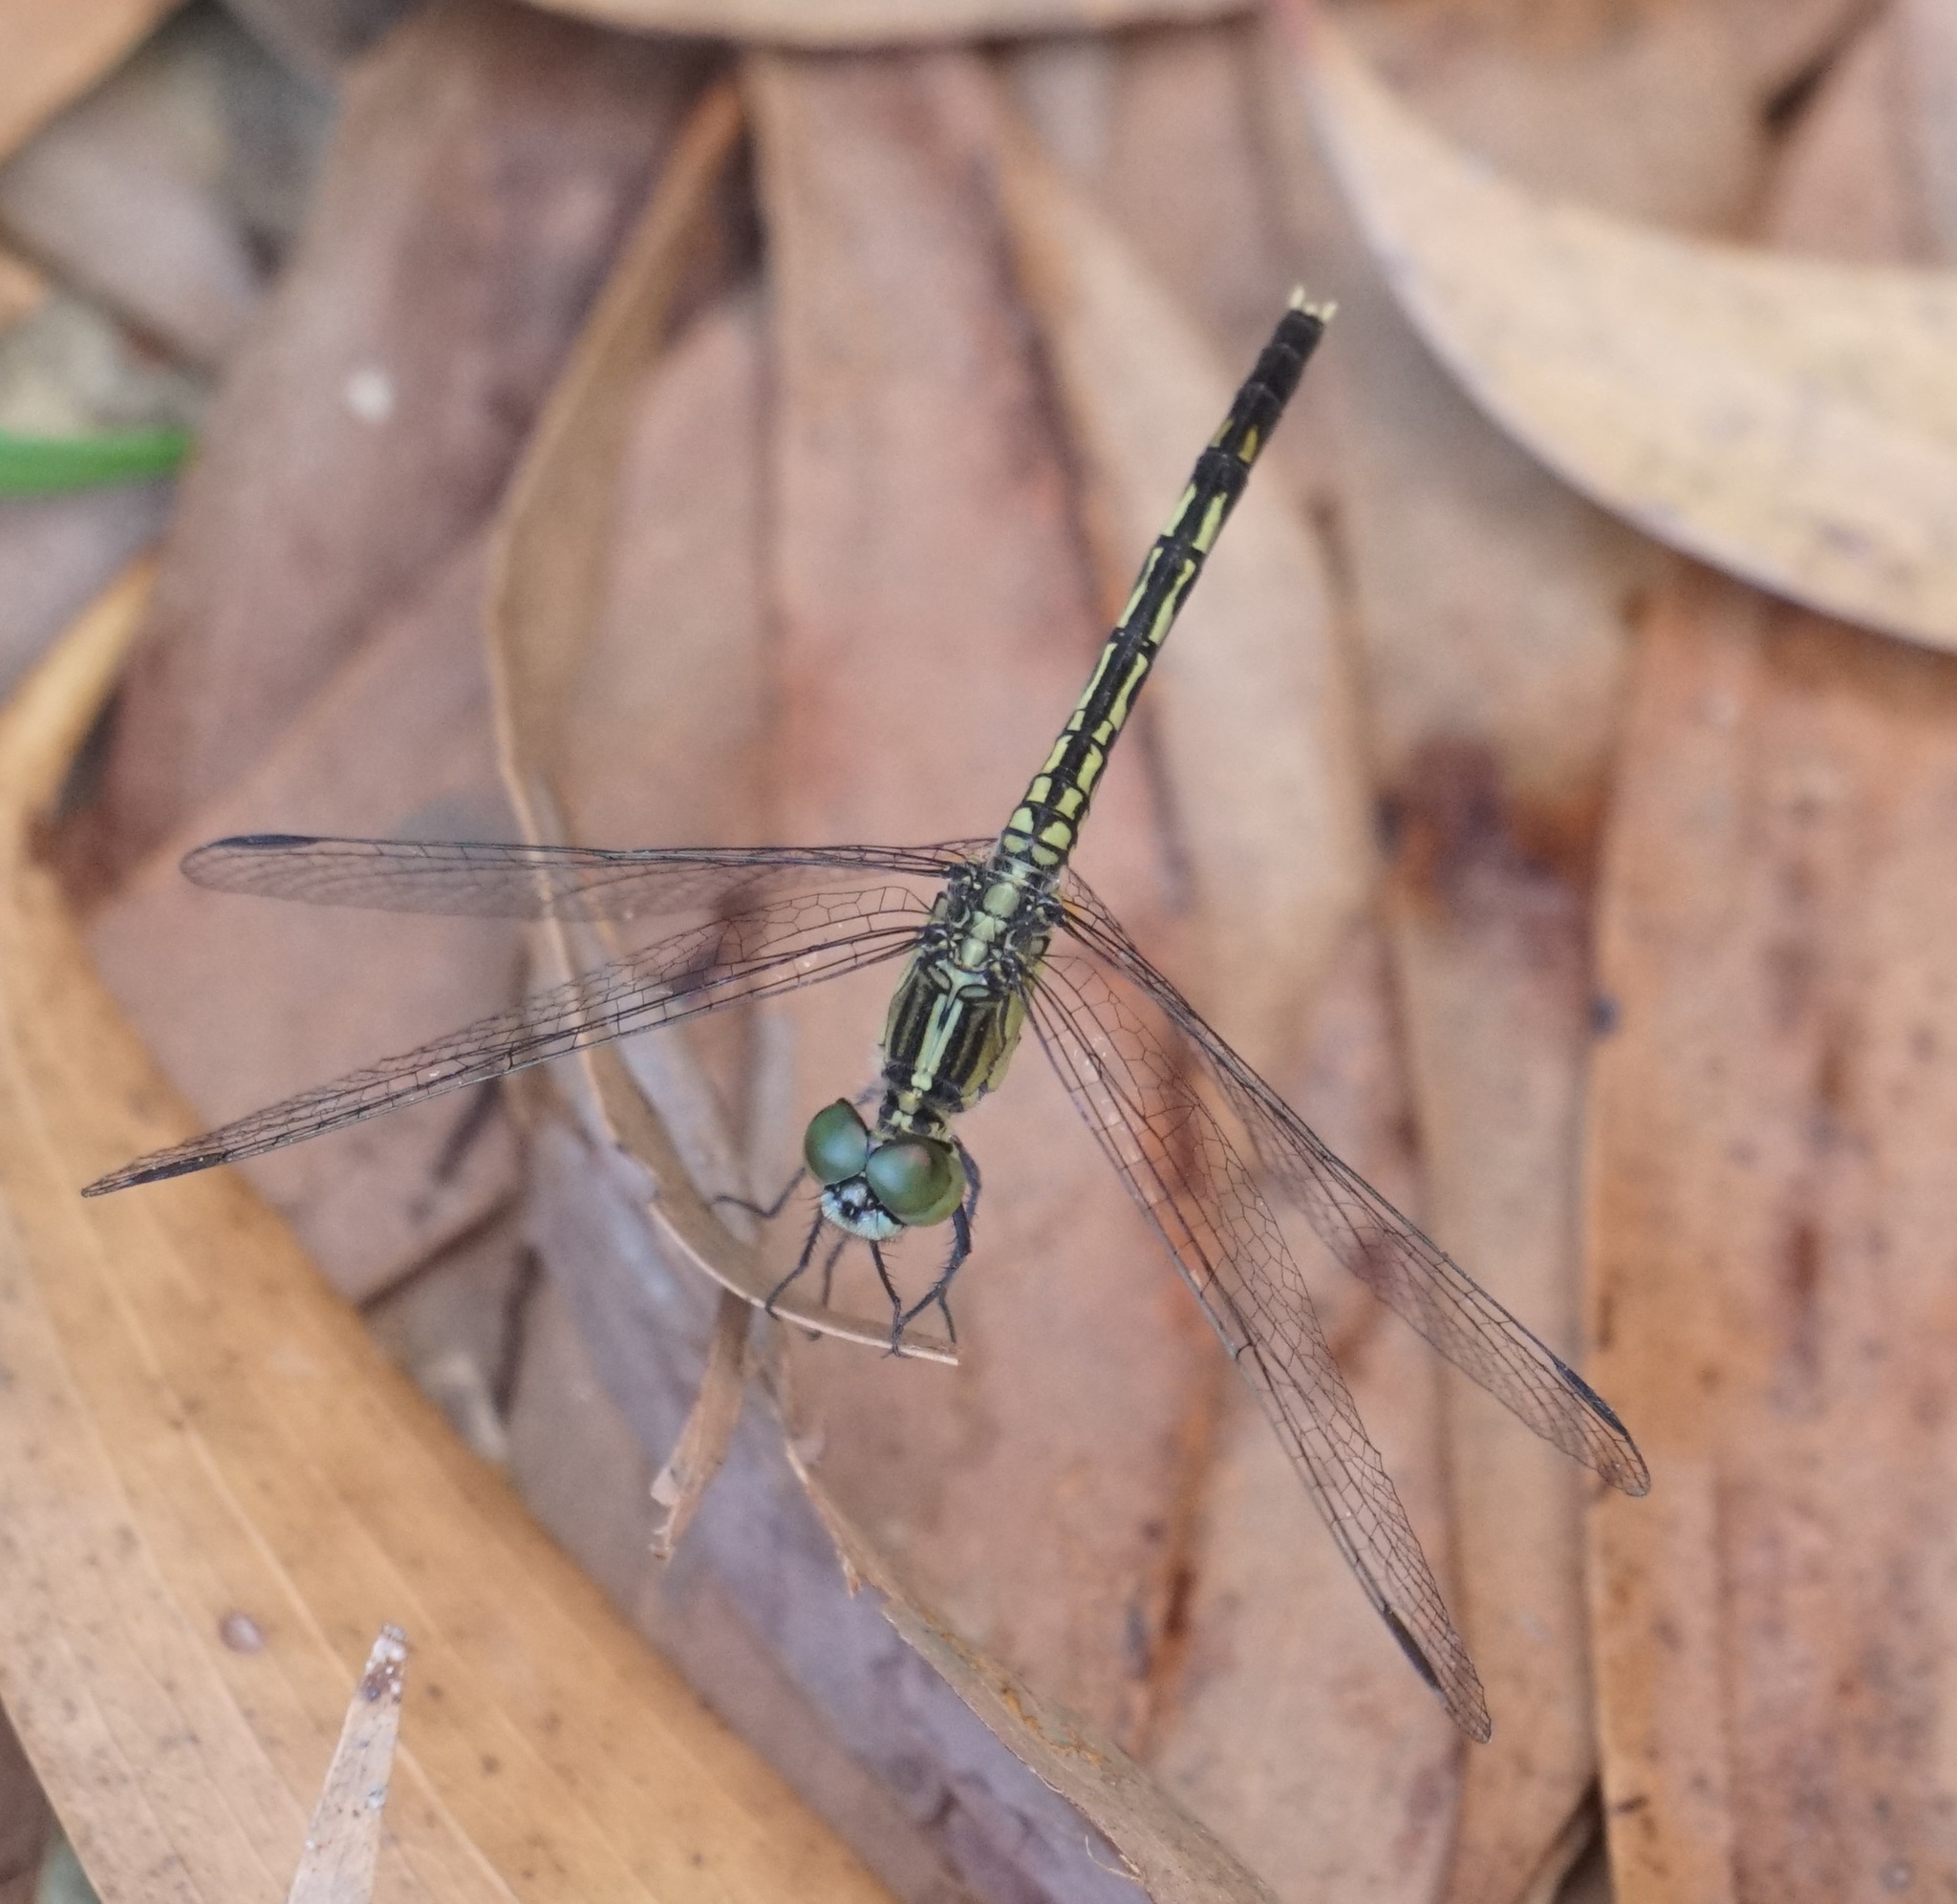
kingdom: Animalia
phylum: Arthropoda
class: Insecta
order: Odonata
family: Libellulidae
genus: Diplacodes
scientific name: Diplacodes trivialis
